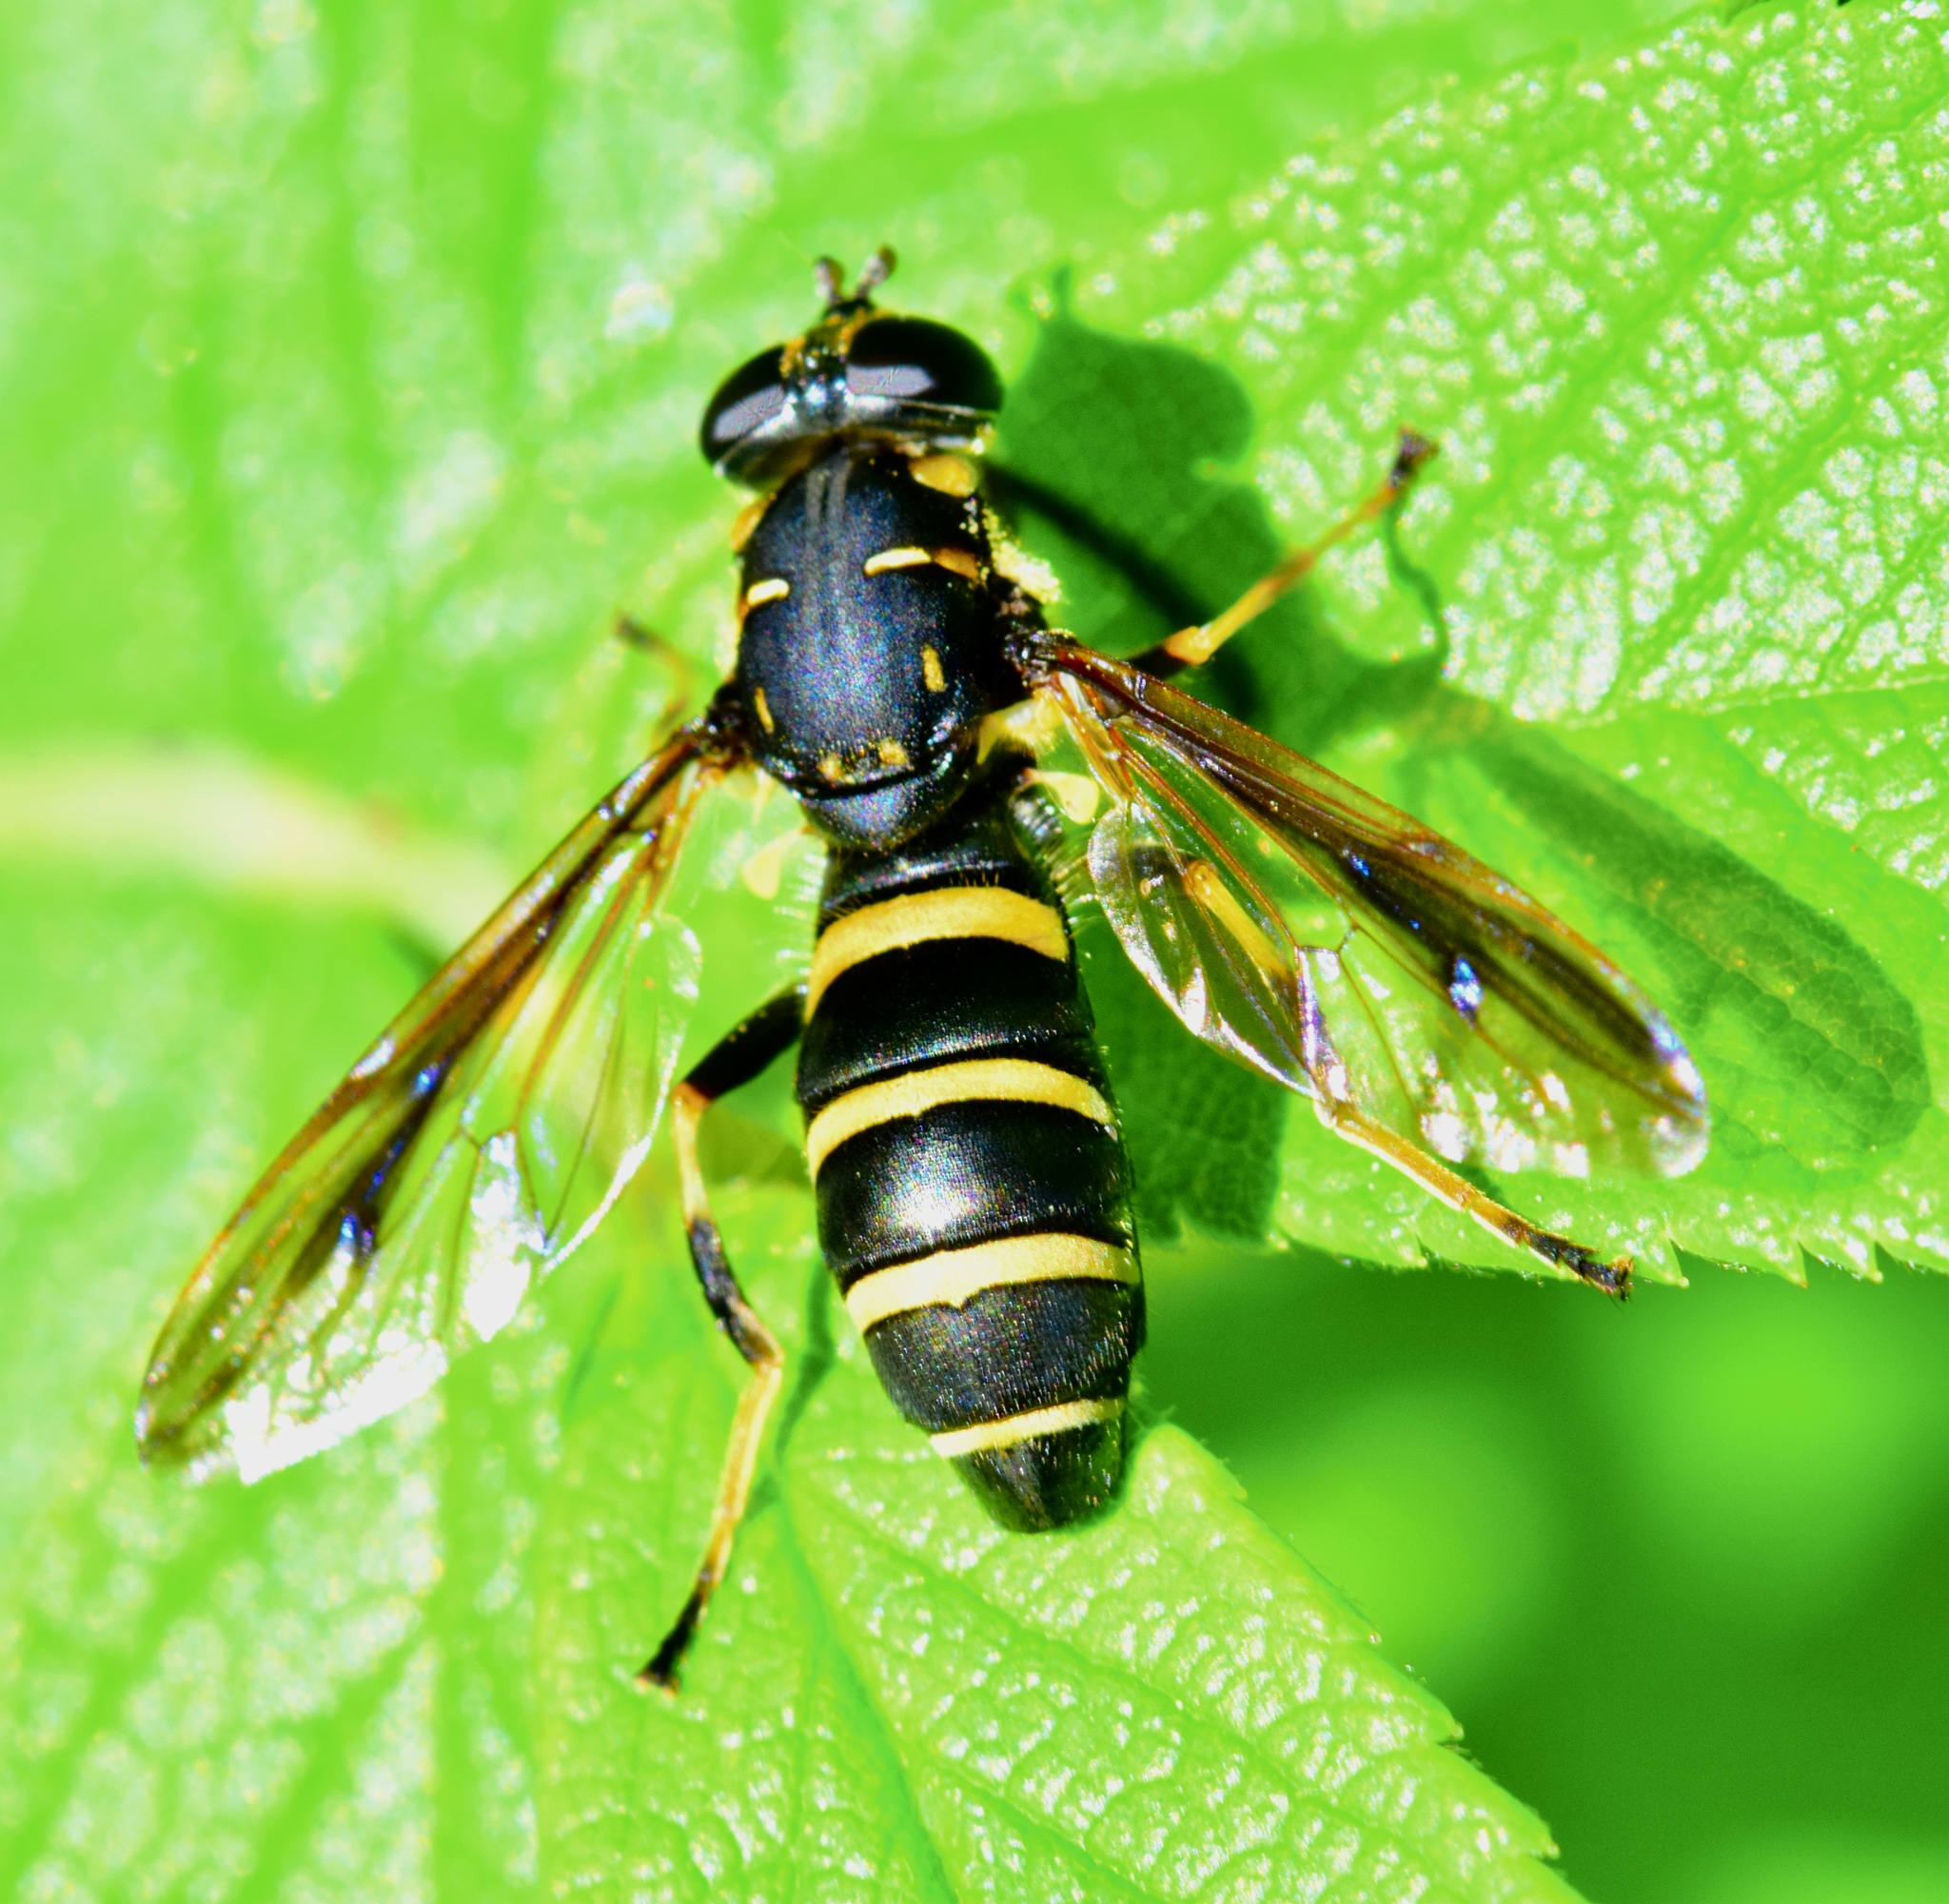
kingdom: Animalia
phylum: Arthropoda
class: Insecta
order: Diptera
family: Syrphidae
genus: Temnostoma
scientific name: Temnostoma barberi
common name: Bare-bellied falsehorn
